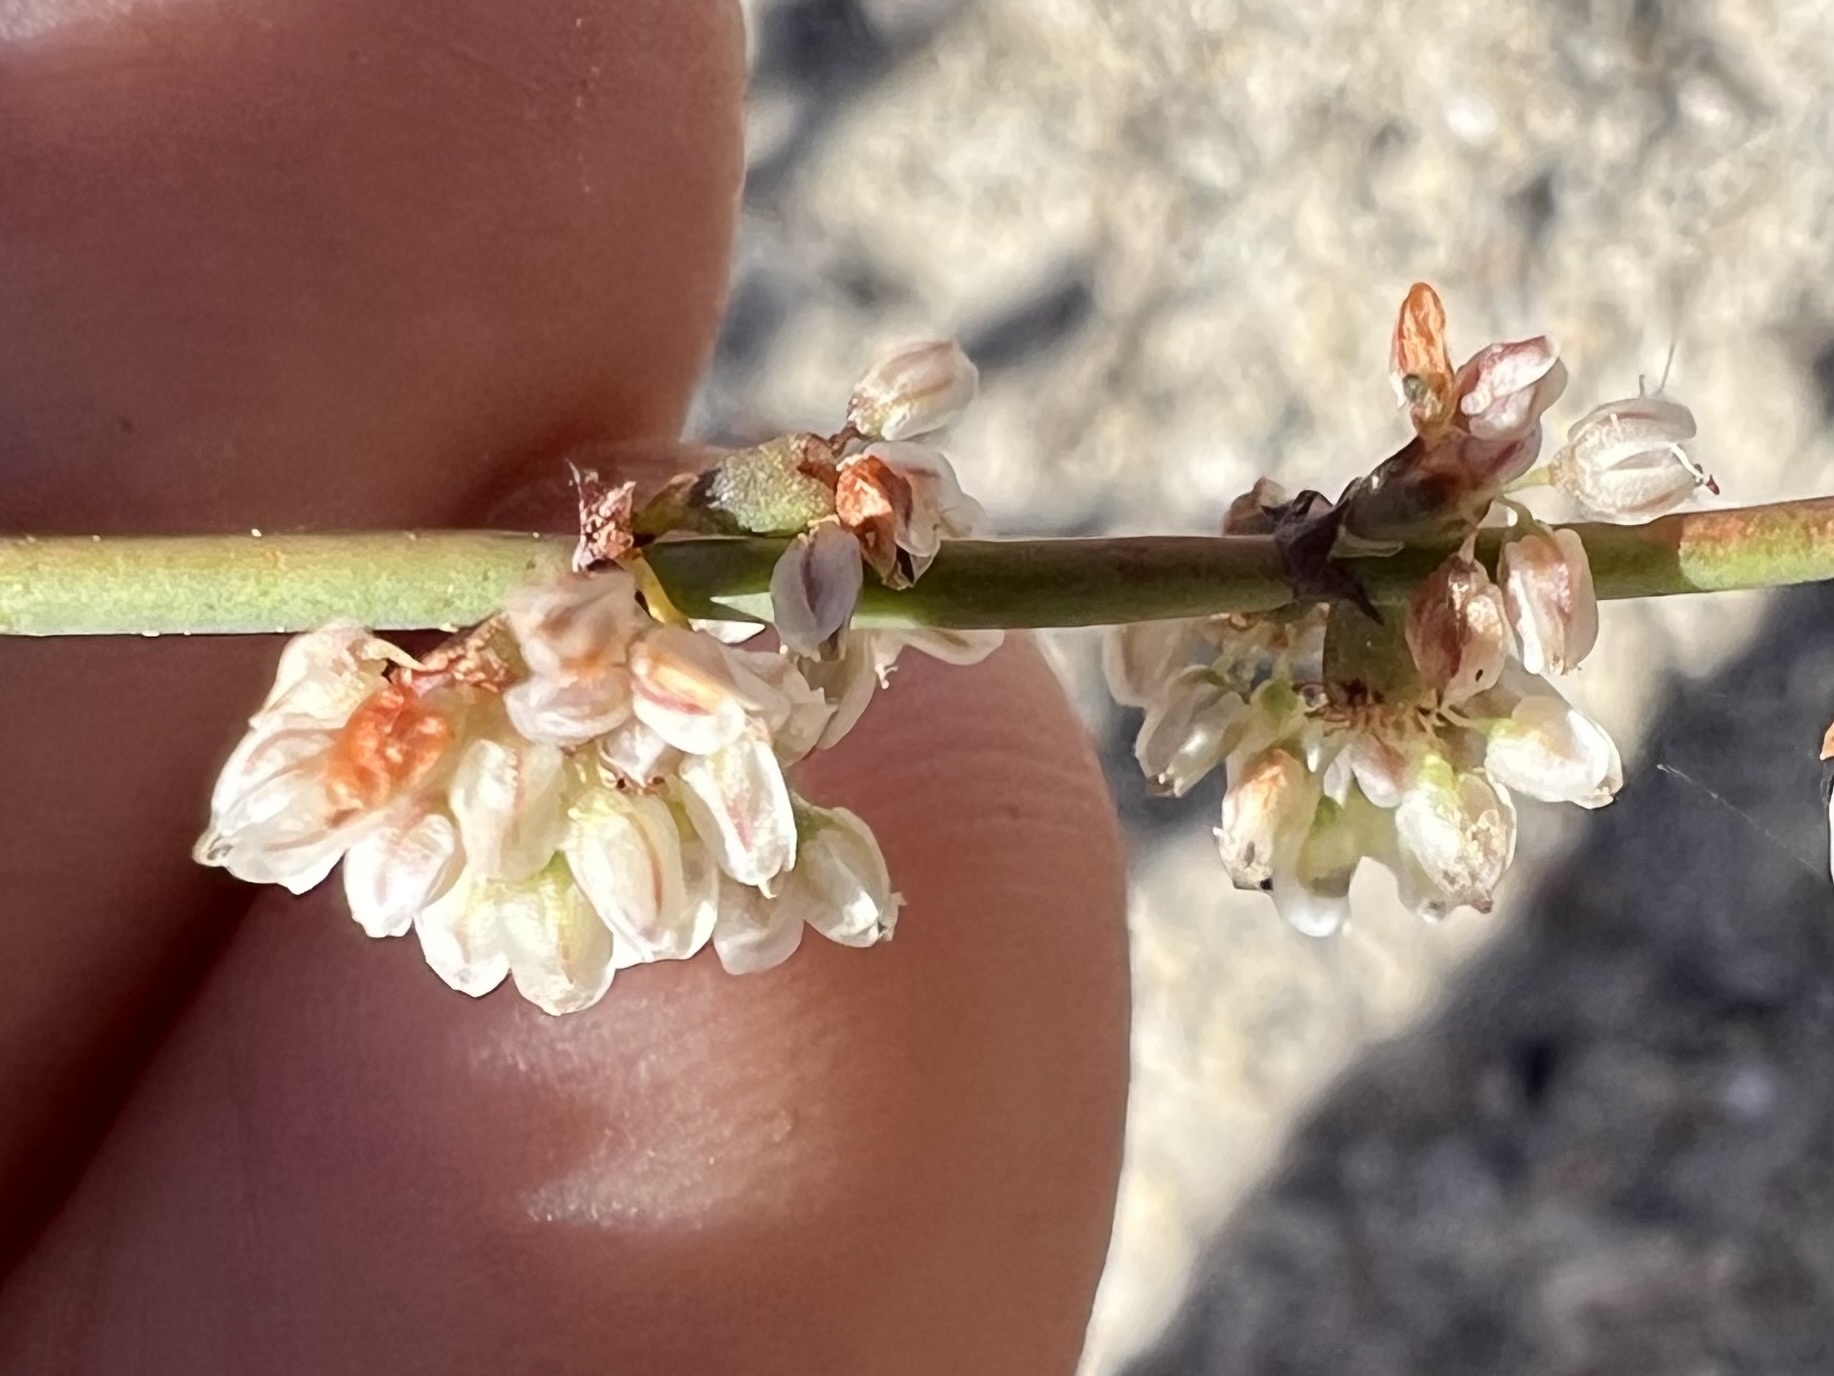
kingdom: Plantae
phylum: Tracheophyta
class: Magnoliopsida
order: Caryophyllales
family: Polygonaceae
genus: Eriogonum
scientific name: Eriogonum deflexum
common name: Skeleton-weed
